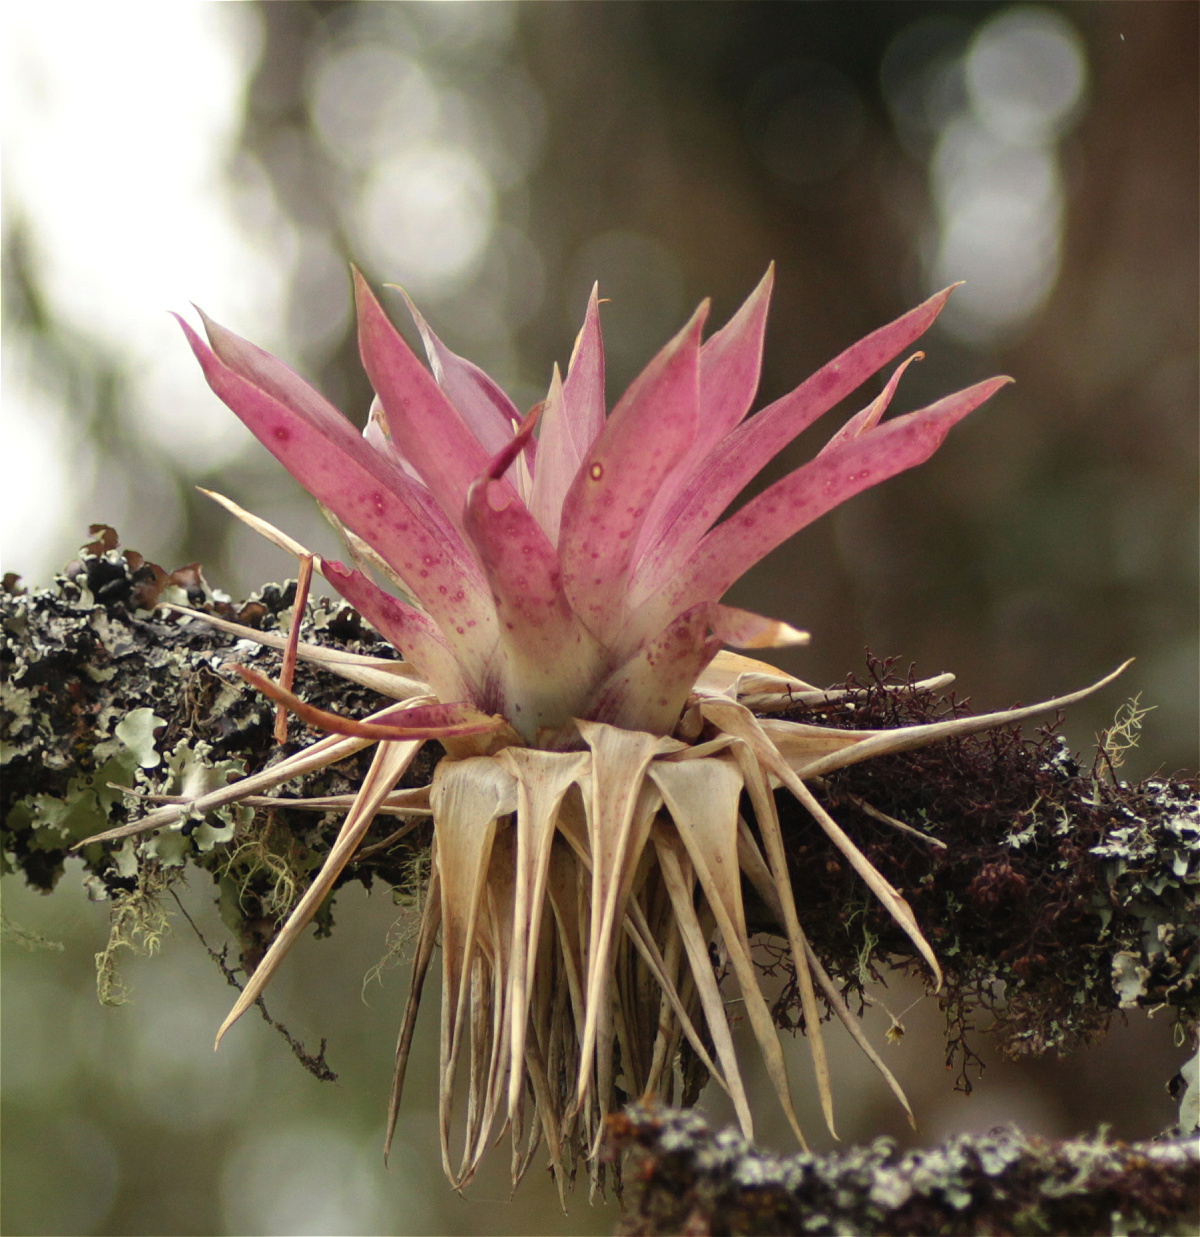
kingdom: Plantae
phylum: Tracheophyta
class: Liliopsida
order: Poales
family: Bromeliaceae
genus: Tillandsia
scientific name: Tillandsia biflora
